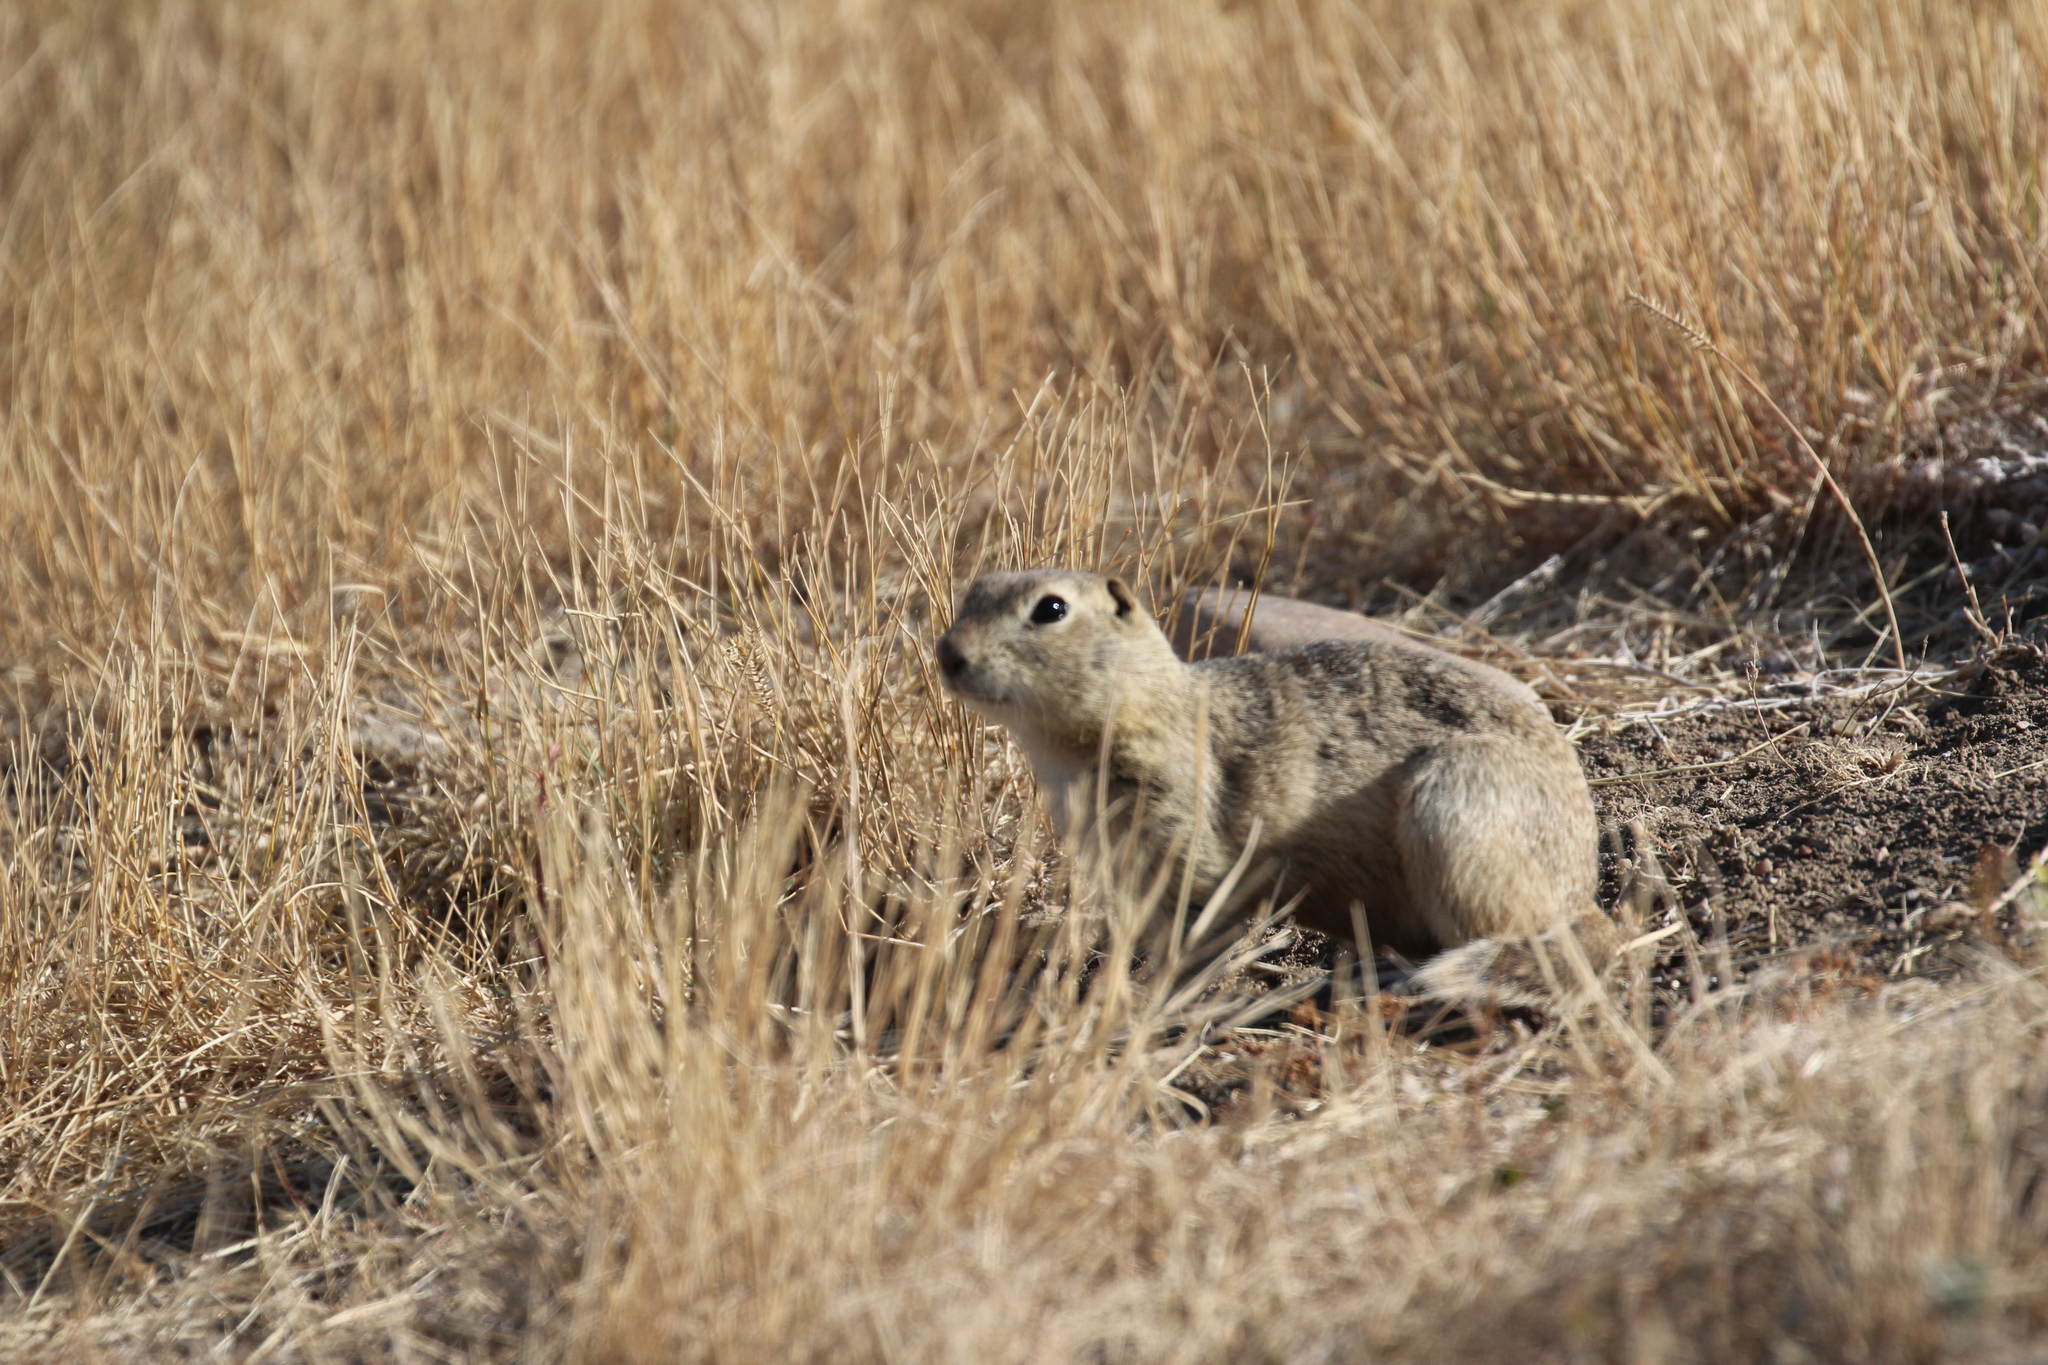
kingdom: Animalia
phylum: Chordata
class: Mammalia
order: Rodentia
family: Sciuridae
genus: Urocitellus
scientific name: Urocitellus richardsonii
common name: Richardson's ground squirrel
